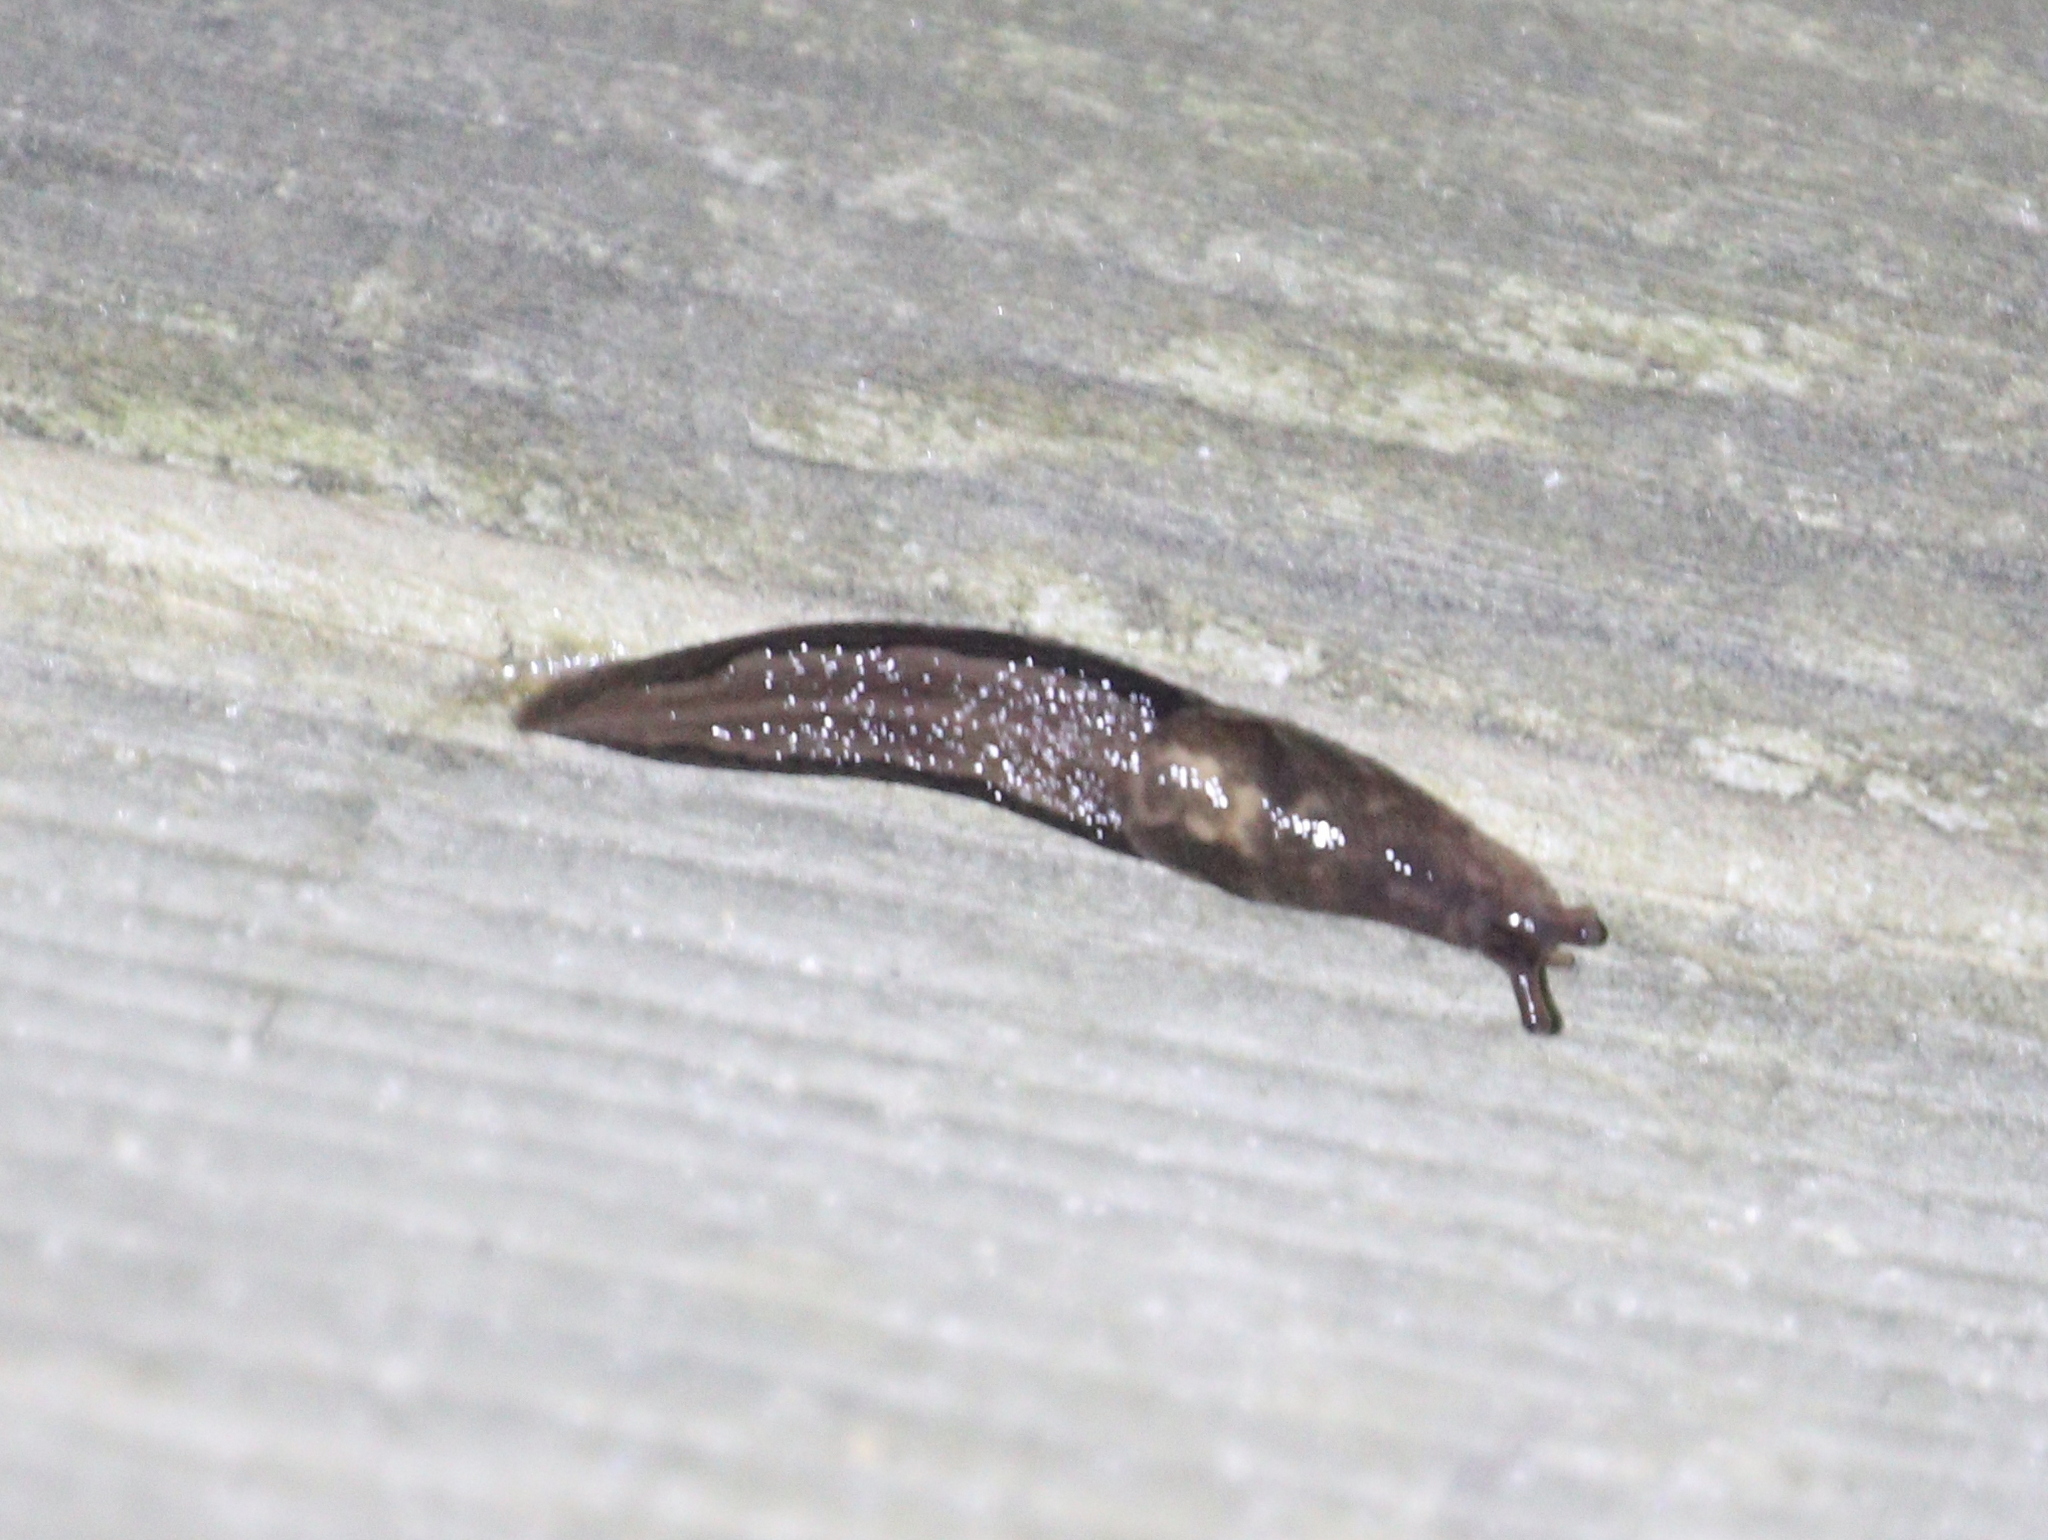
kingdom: Animalia
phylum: Mollusca
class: Gastropoda
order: Stylommatophora
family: Limacidae
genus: Limax
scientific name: Limax maximus
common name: Great grey slug
